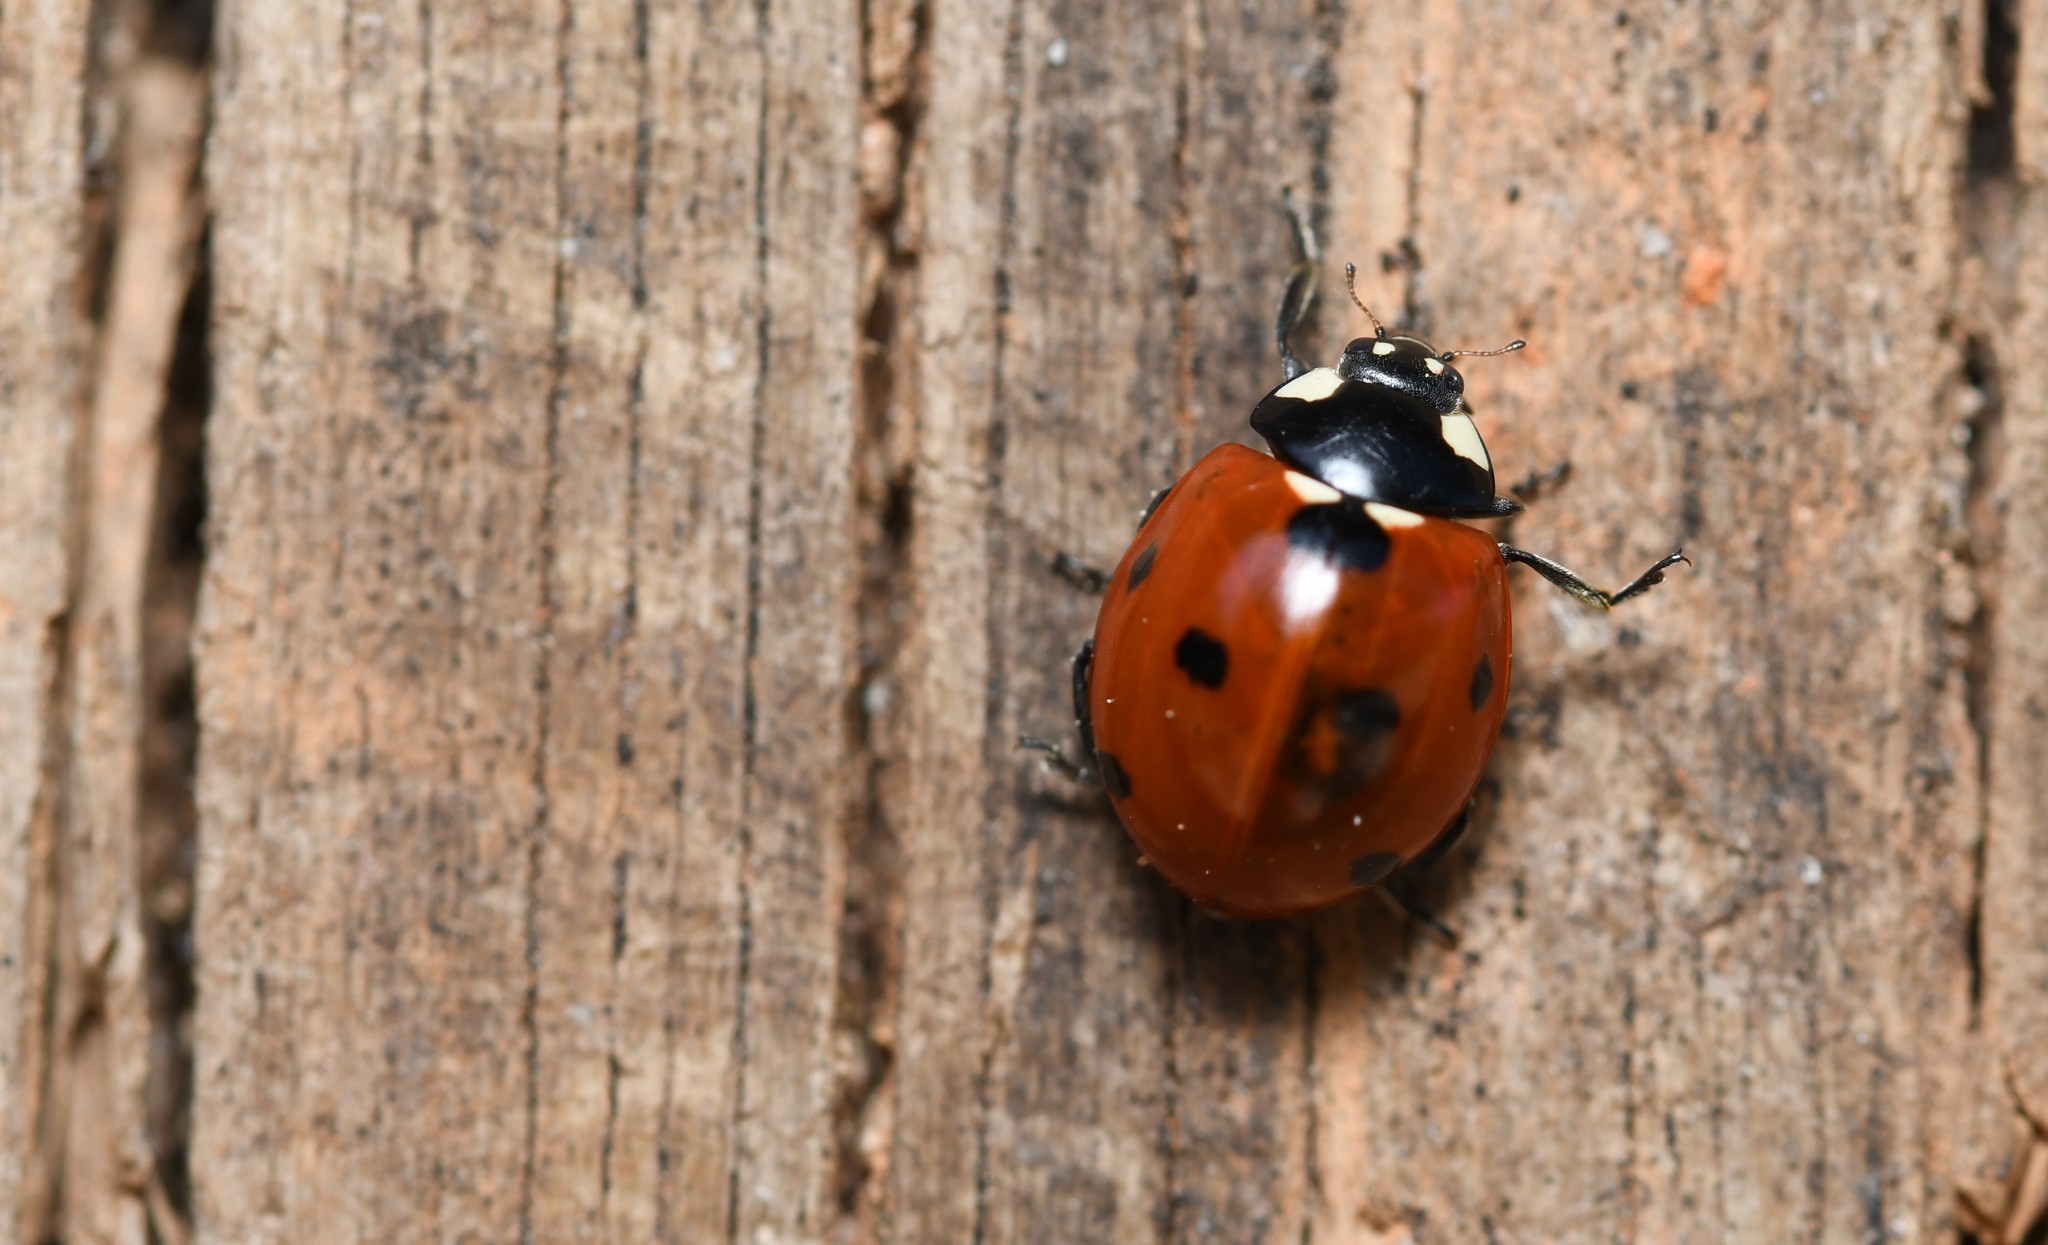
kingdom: Animalia
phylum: Arthropoda
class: Insecta
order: Coleoptera
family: Coccinellidae
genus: Coccinella
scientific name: Coccinella septempunctata
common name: Sevenspotted lady beetle
